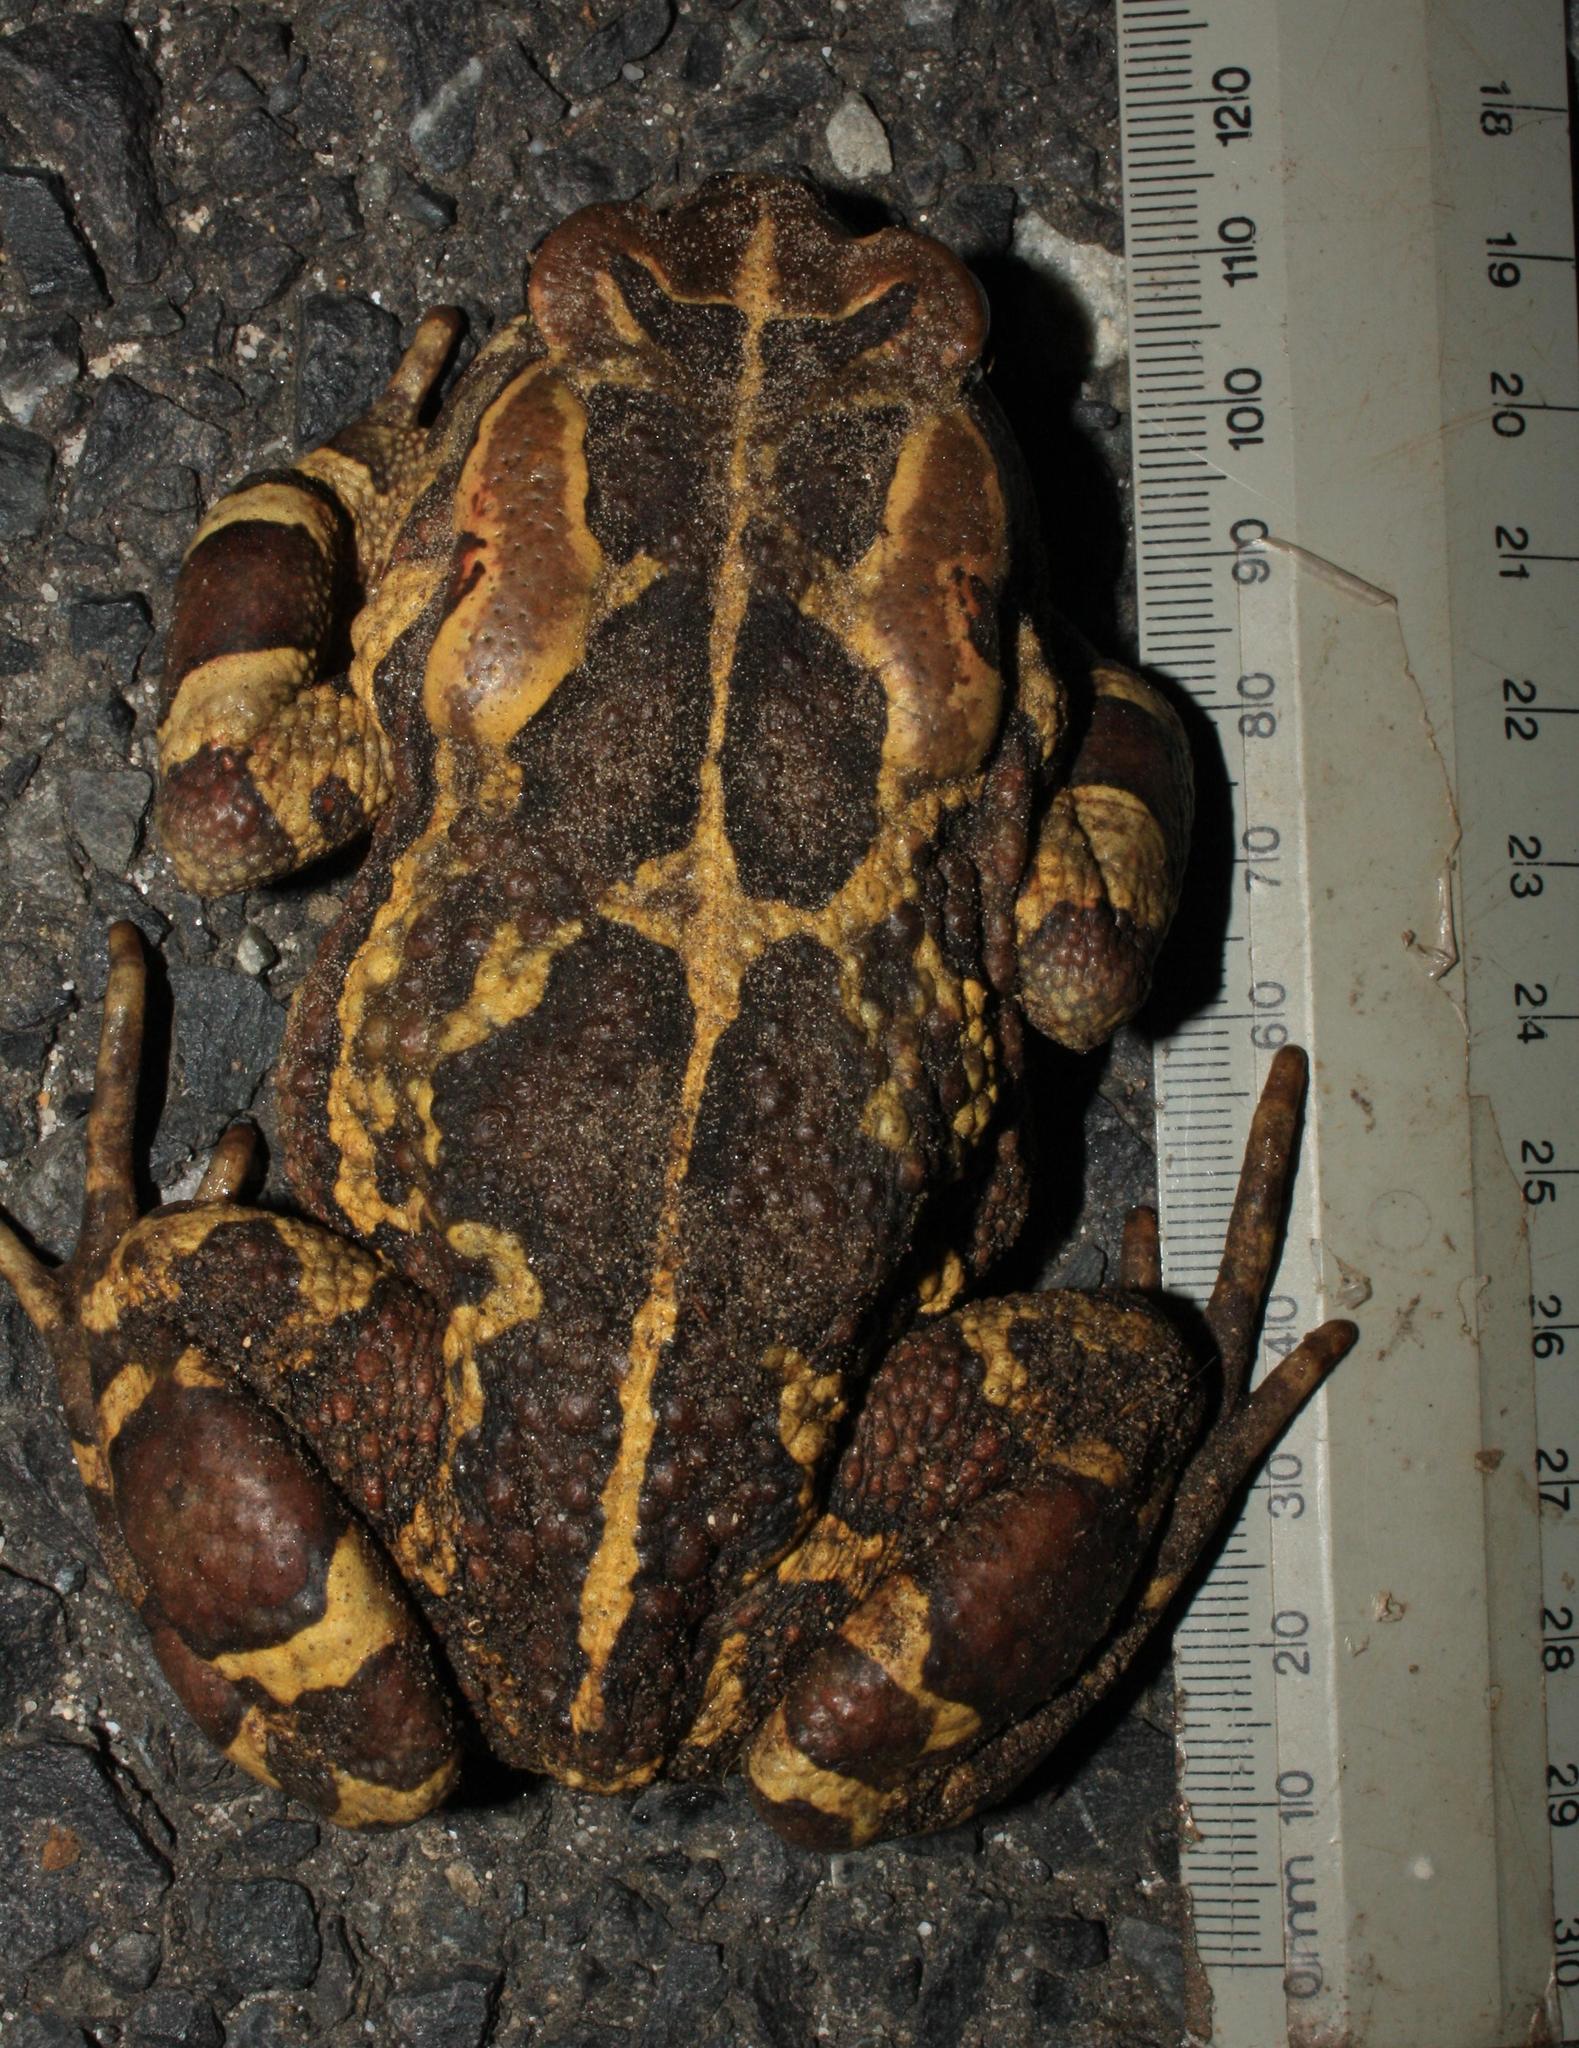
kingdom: Animalia
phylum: Chordata
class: Amphibia
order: Anura
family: Bufonidae
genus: Sclerophrys
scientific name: Sclerophrys pantherina
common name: Panther toad
